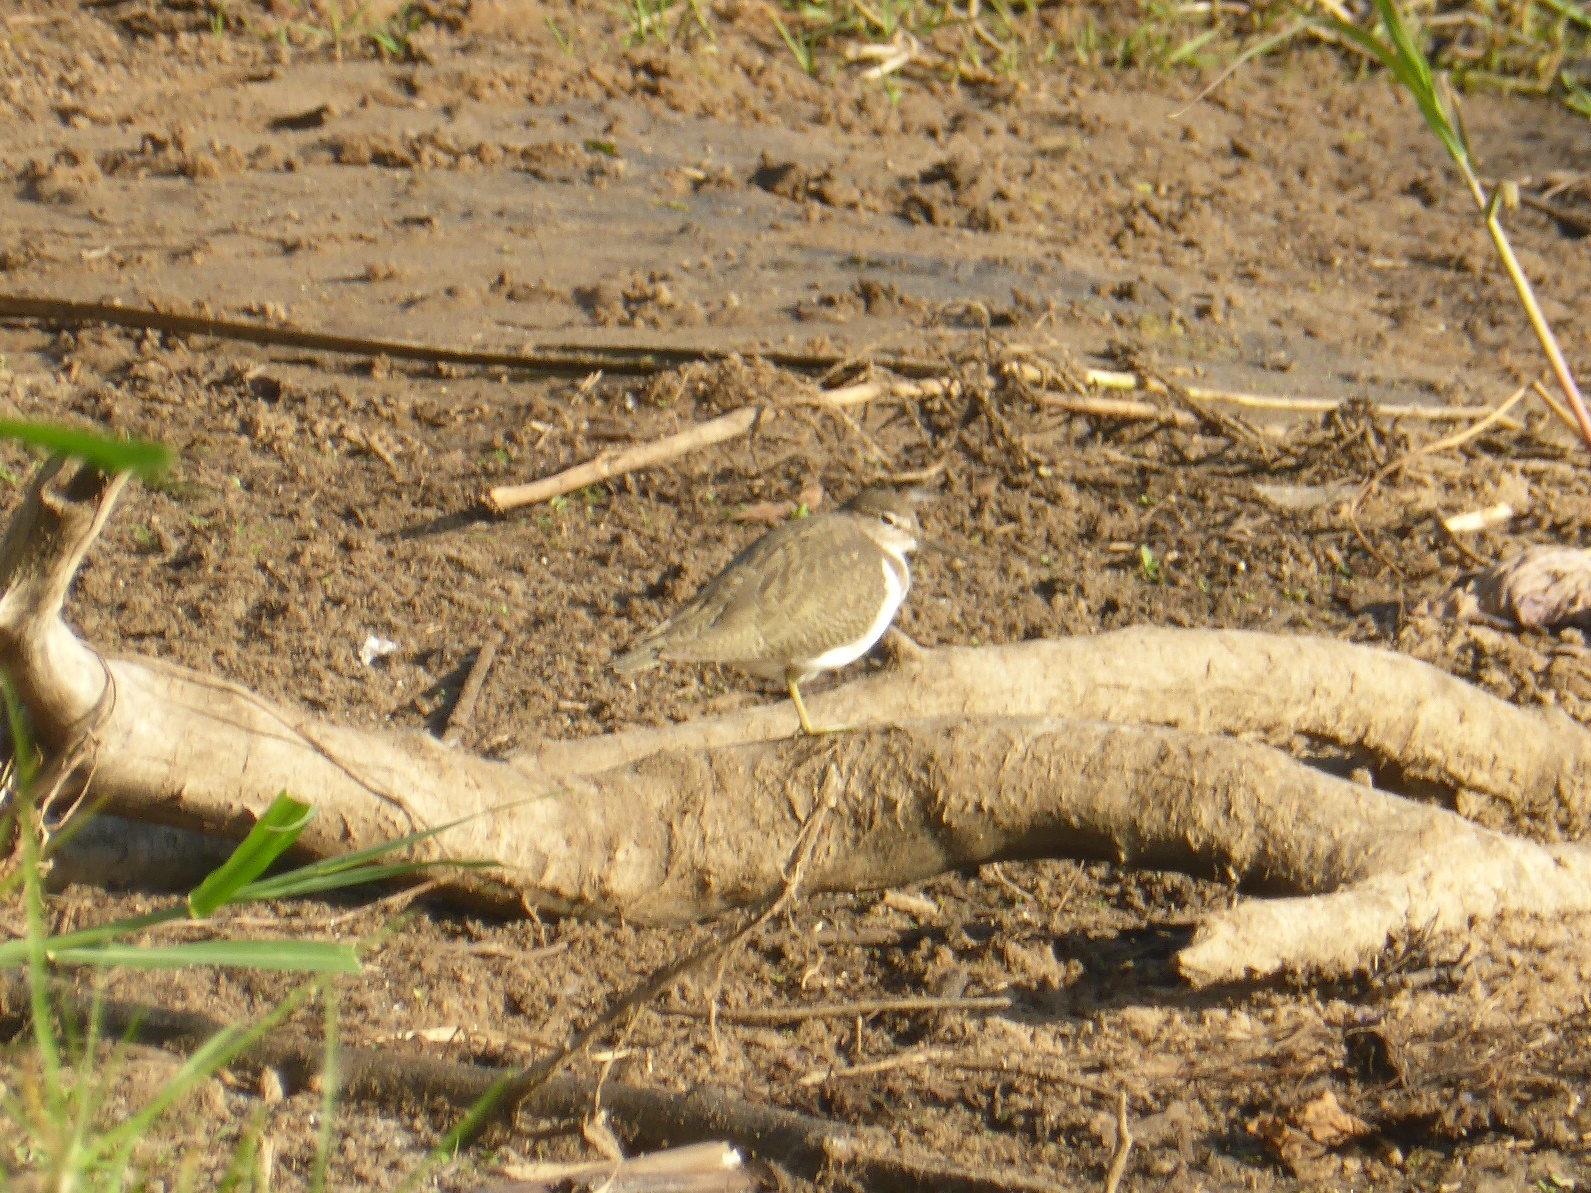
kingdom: Animalia
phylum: Chordata
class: Aves
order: Charadriiformes
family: Scolopacidae
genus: Actitis
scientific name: Actitis hypoleucos
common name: Common sandpiper
